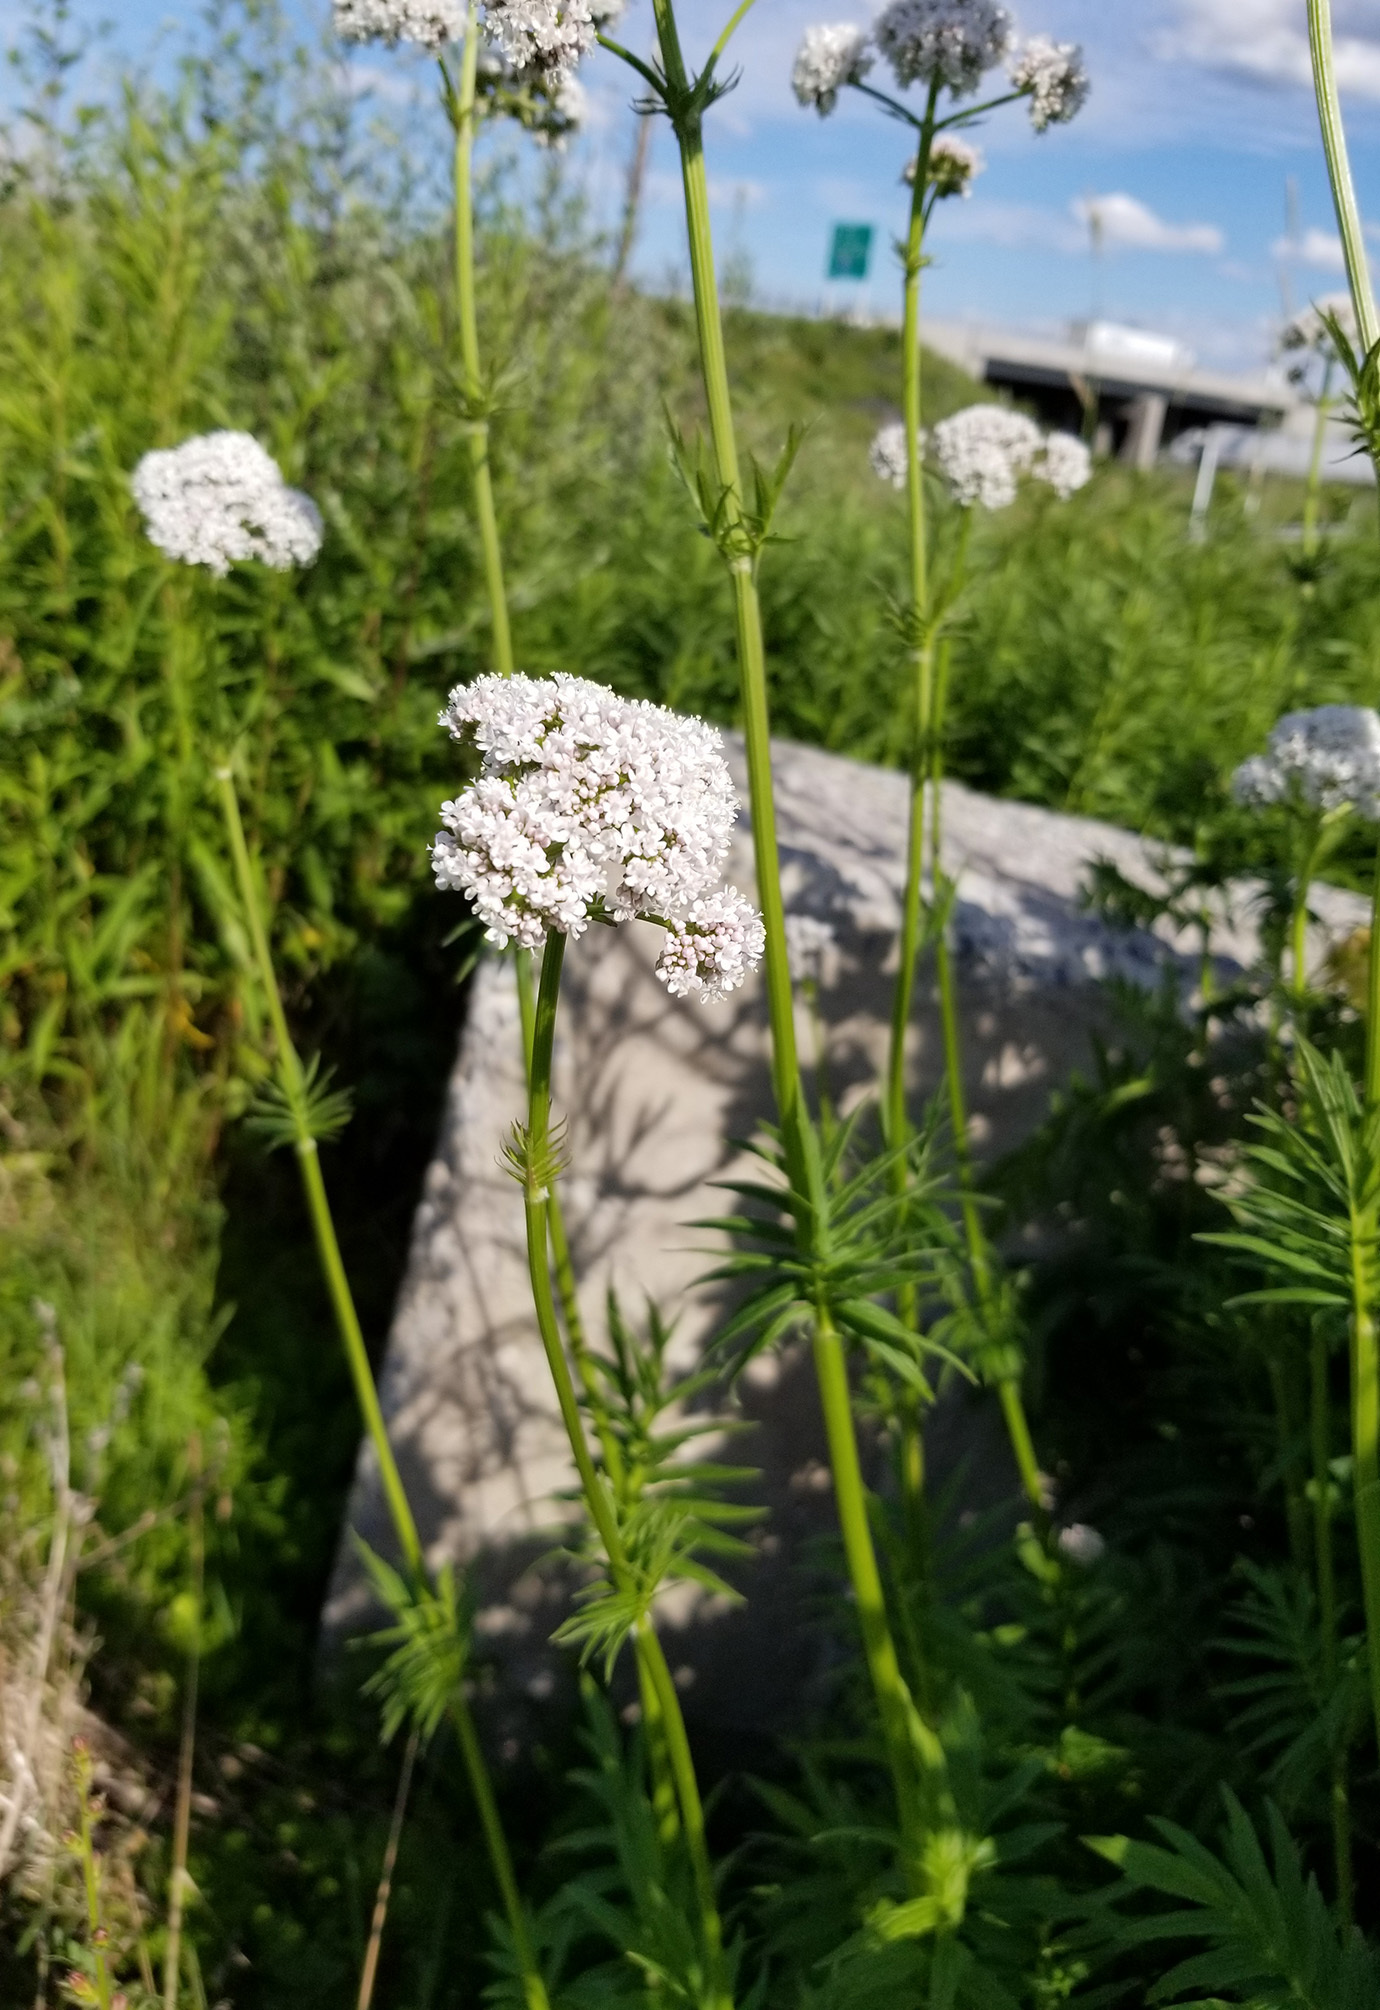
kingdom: Plantae
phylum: Tracheophyta
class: Magnoliopsida
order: Dipsacales
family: Caprifoliaceae
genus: Valeriana
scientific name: Valeriana officinalis
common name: Common valerian
